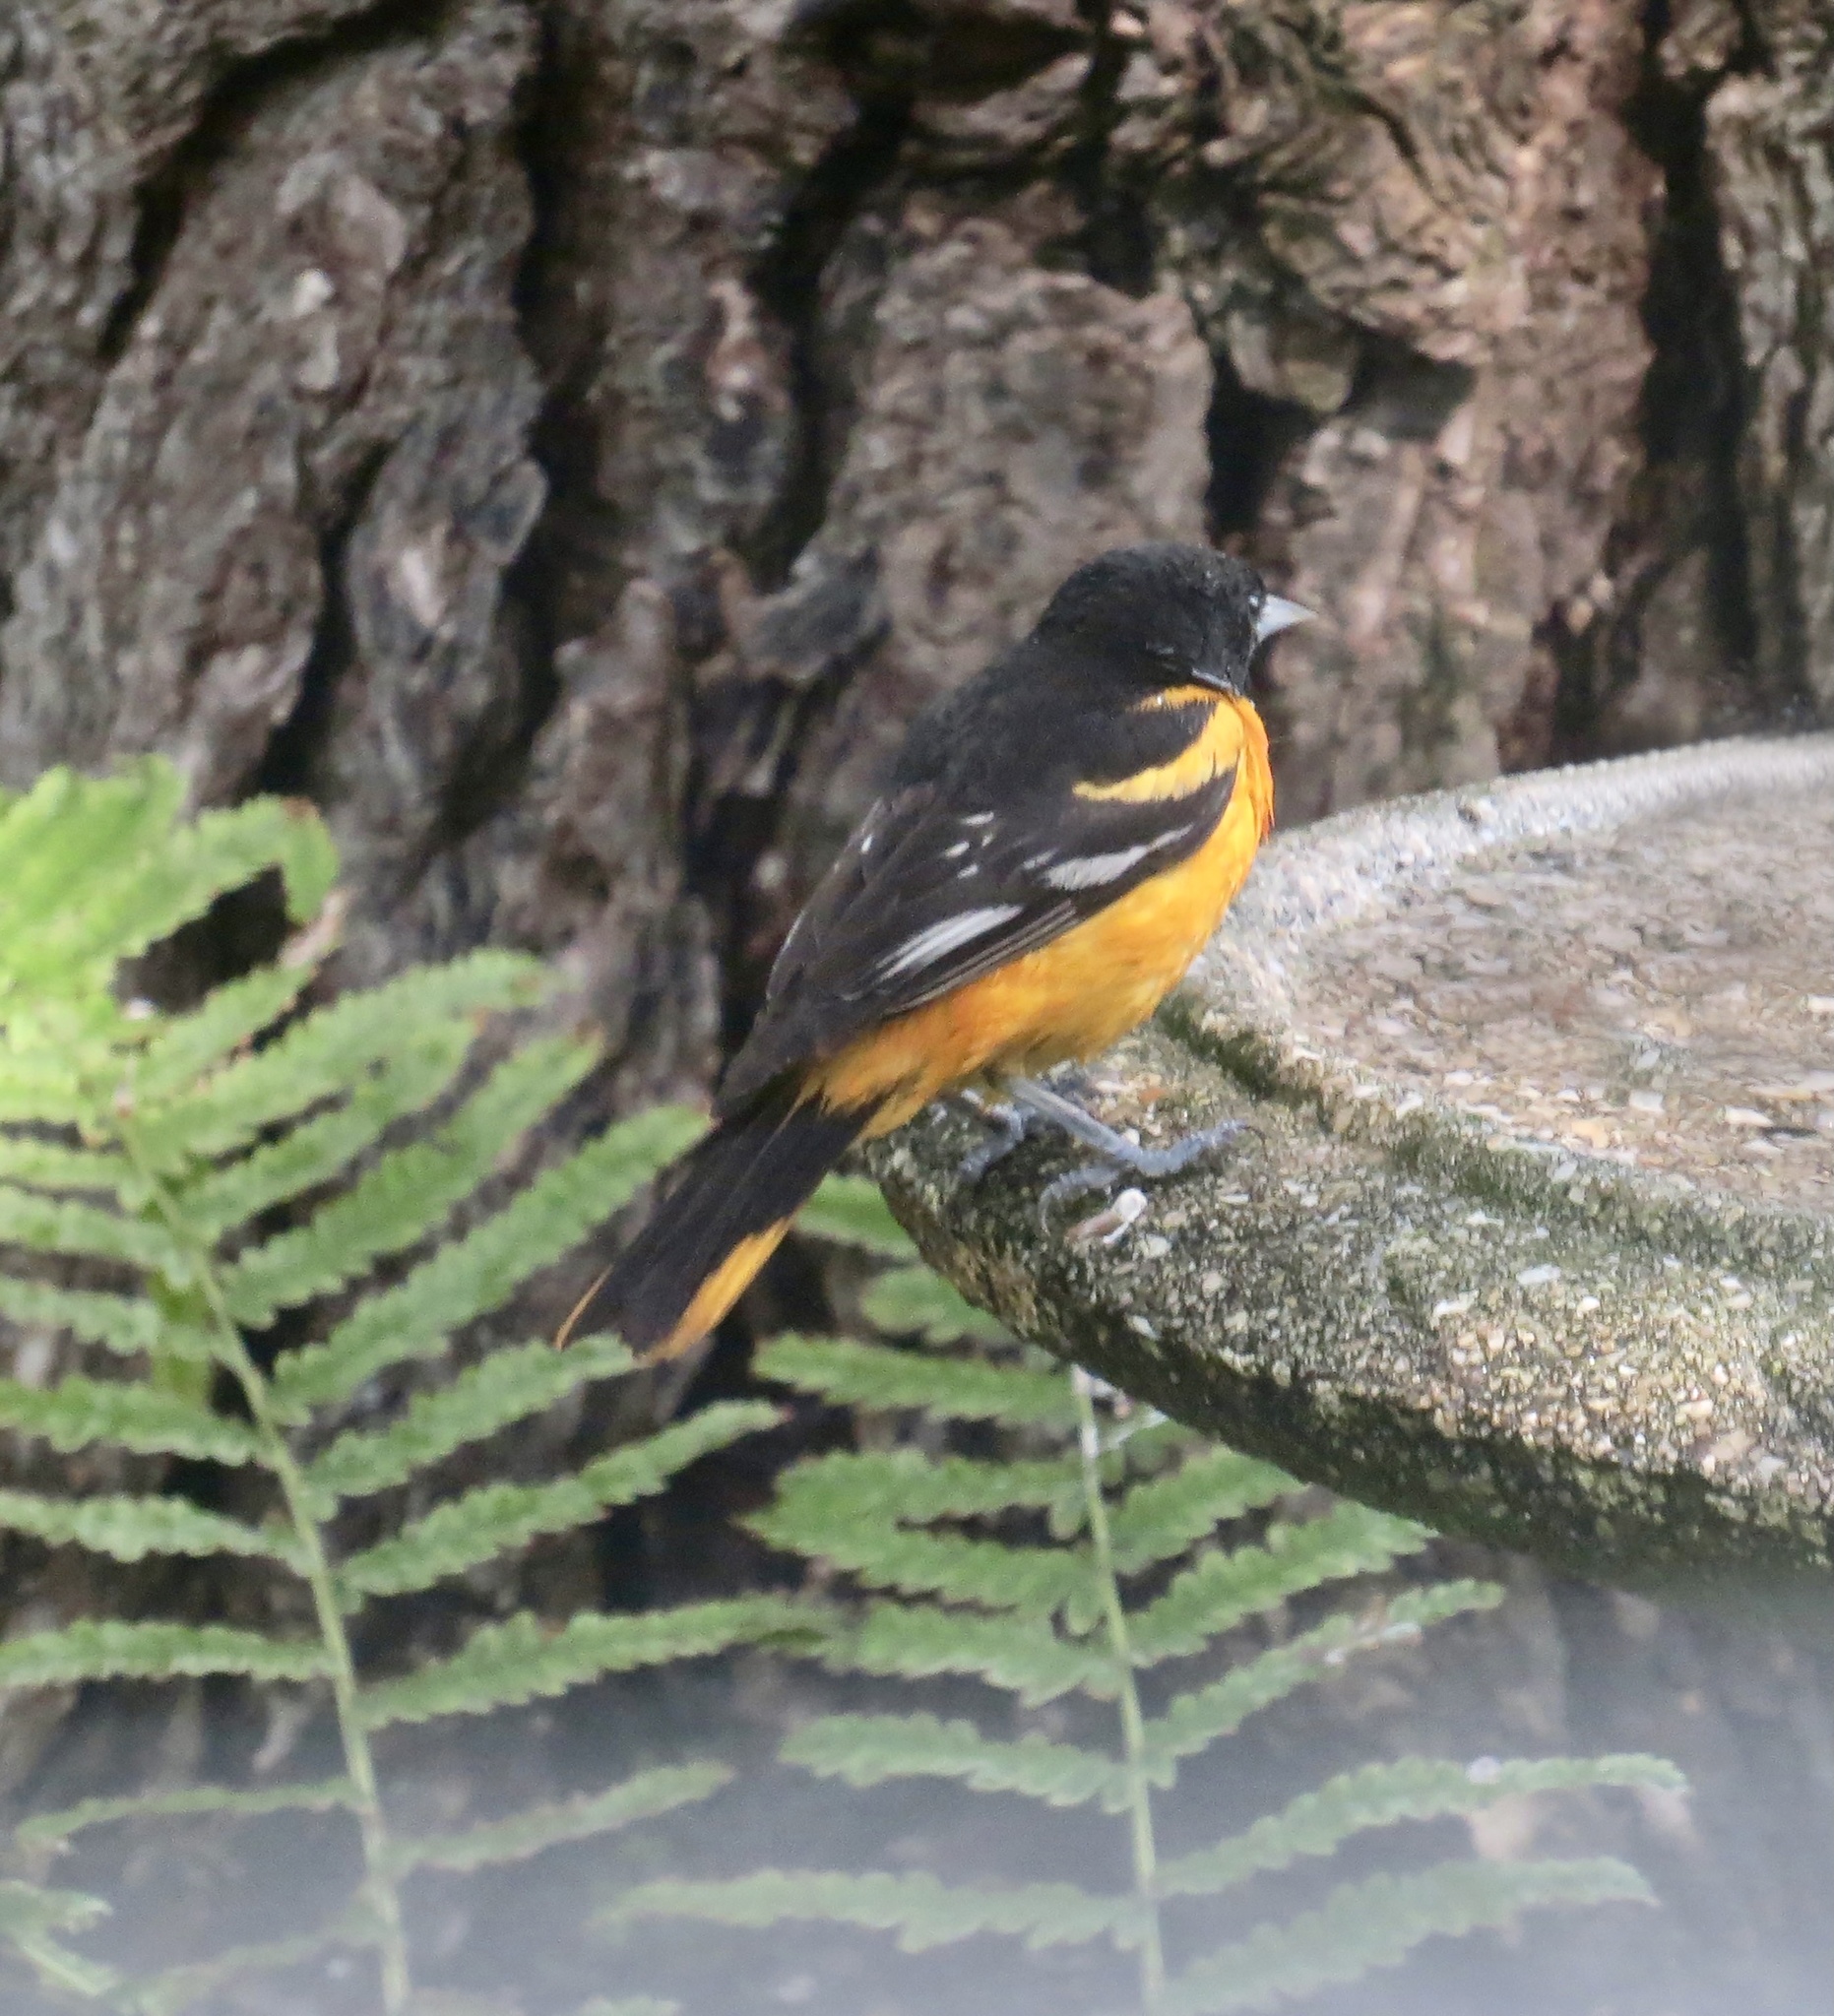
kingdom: Animalia
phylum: Chordata
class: Aves
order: Passeriformes
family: Icteridae
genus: Icterus
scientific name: Icterus galbula
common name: Baltimore oriole
